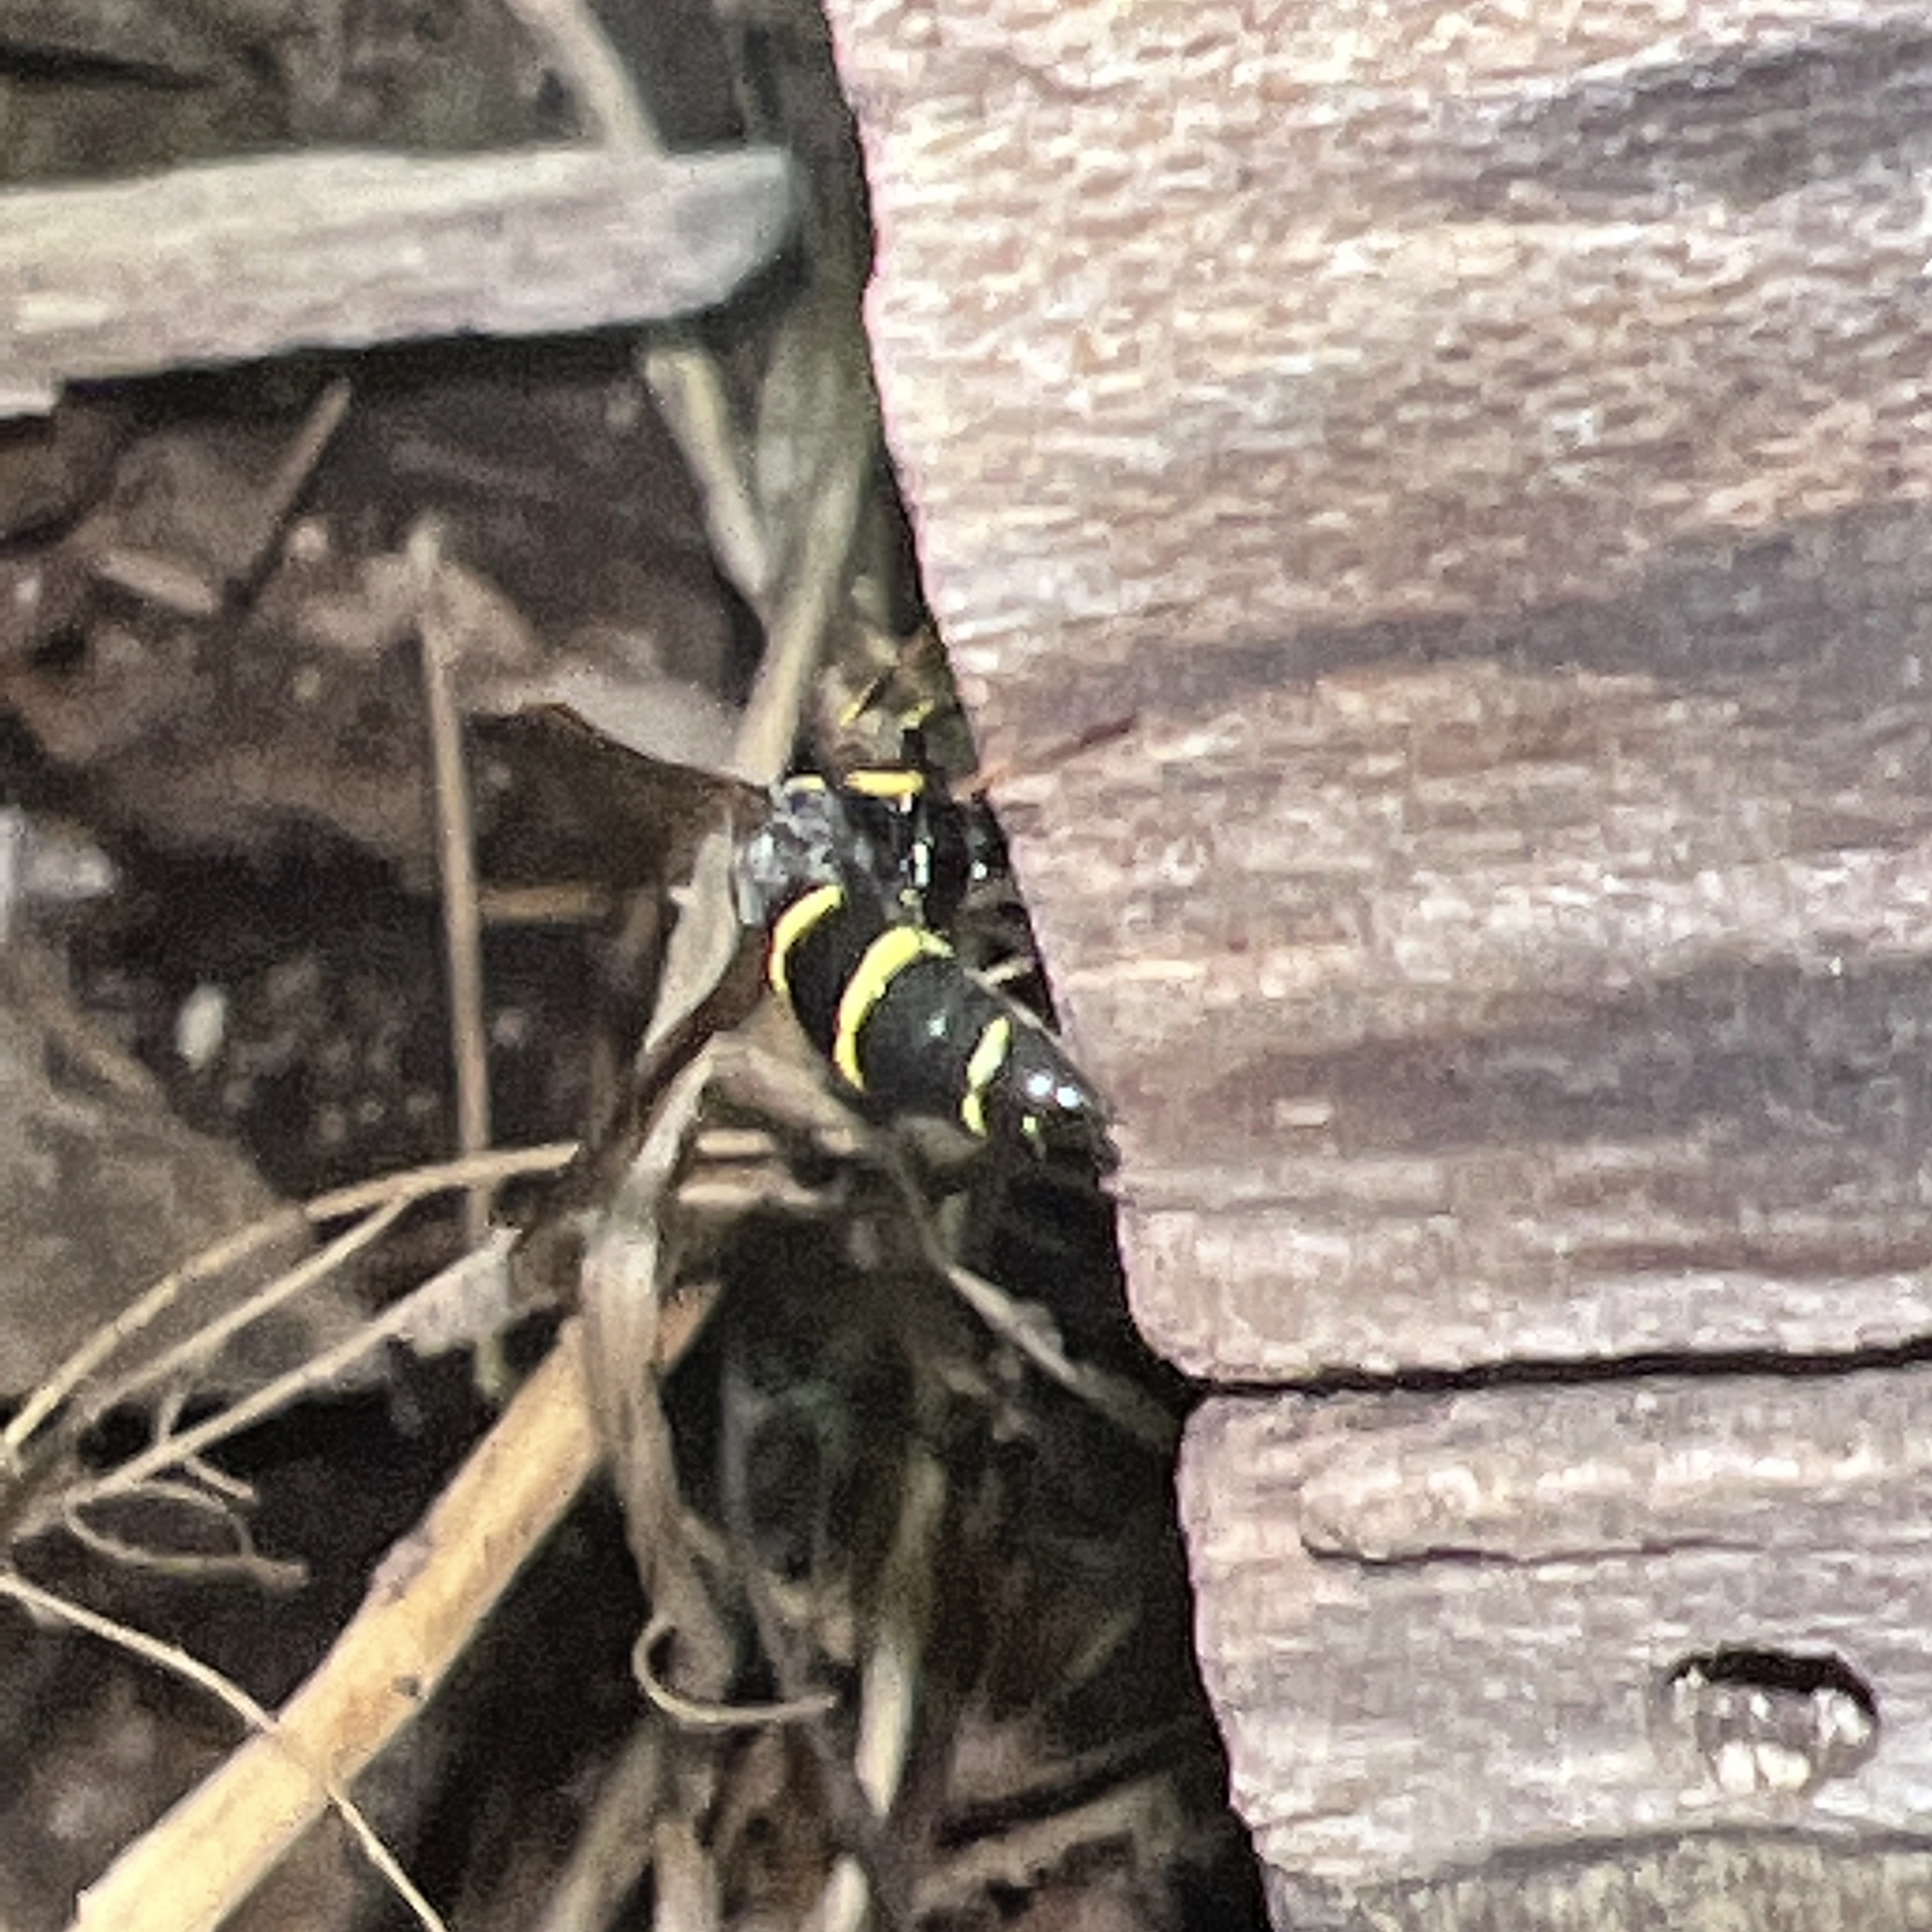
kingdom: Animalia
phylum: Arthropoda
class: Insecta
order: Hymenoptera
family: Eumenidae
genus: Symmorphus
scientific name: Symmorphus
